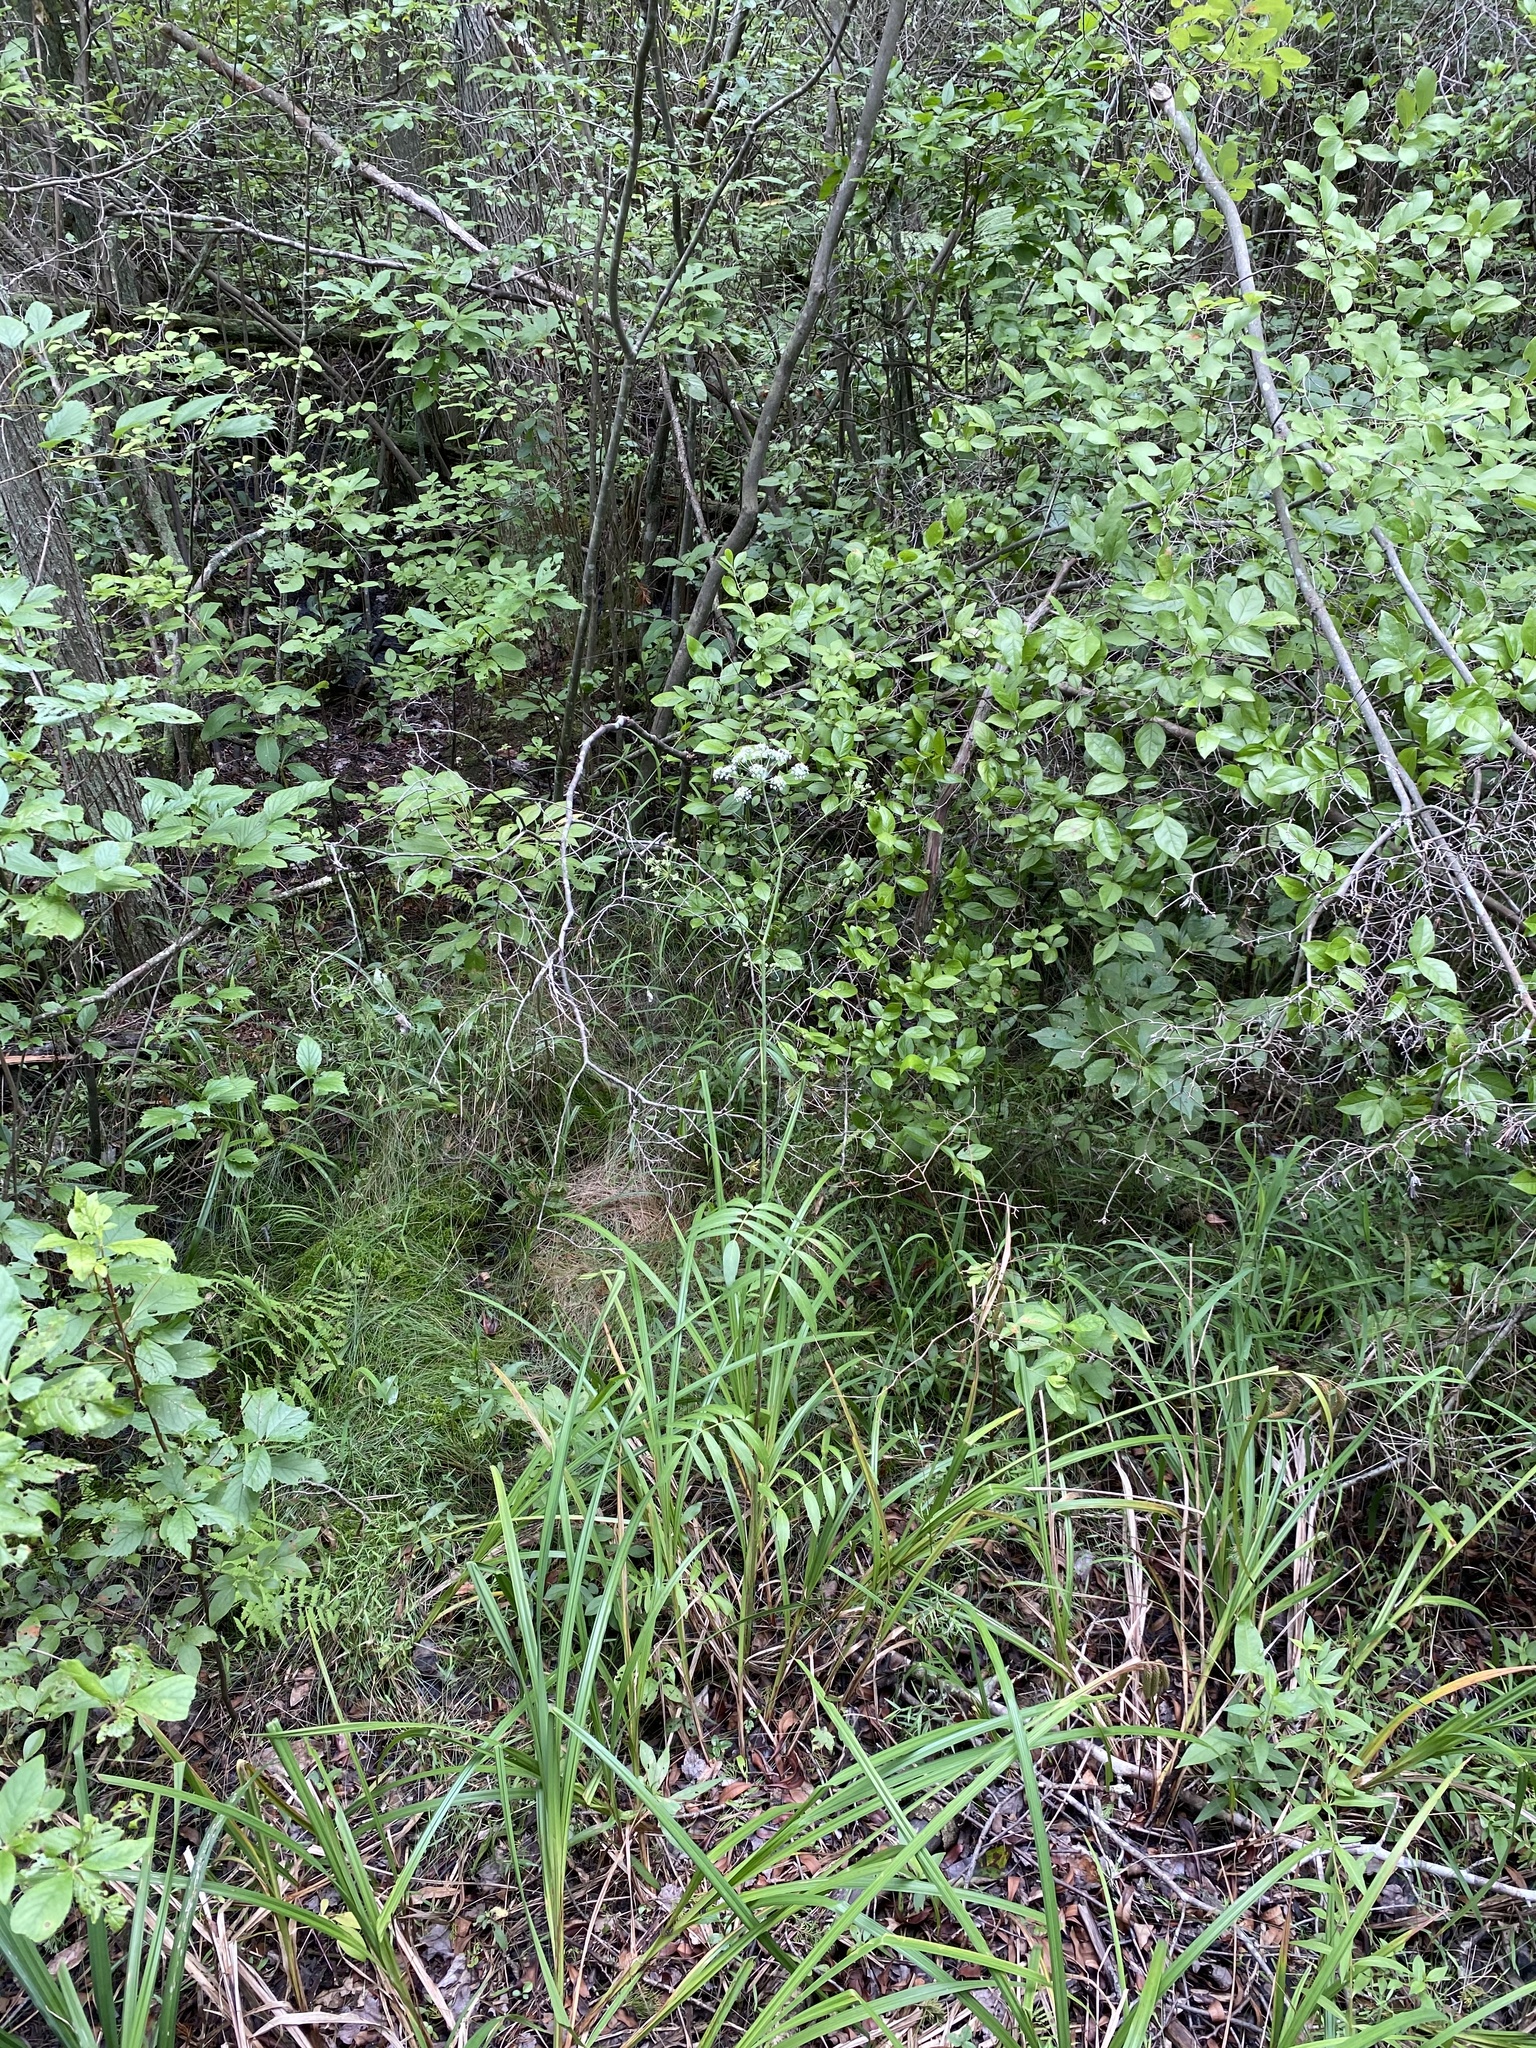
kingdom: Plantae
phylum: Tracheophyta
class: Magnoliopsida
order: Apiales
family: Apiaceae
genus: Oxypolis
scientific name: Oxypolis rigidior
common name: Cowbane
